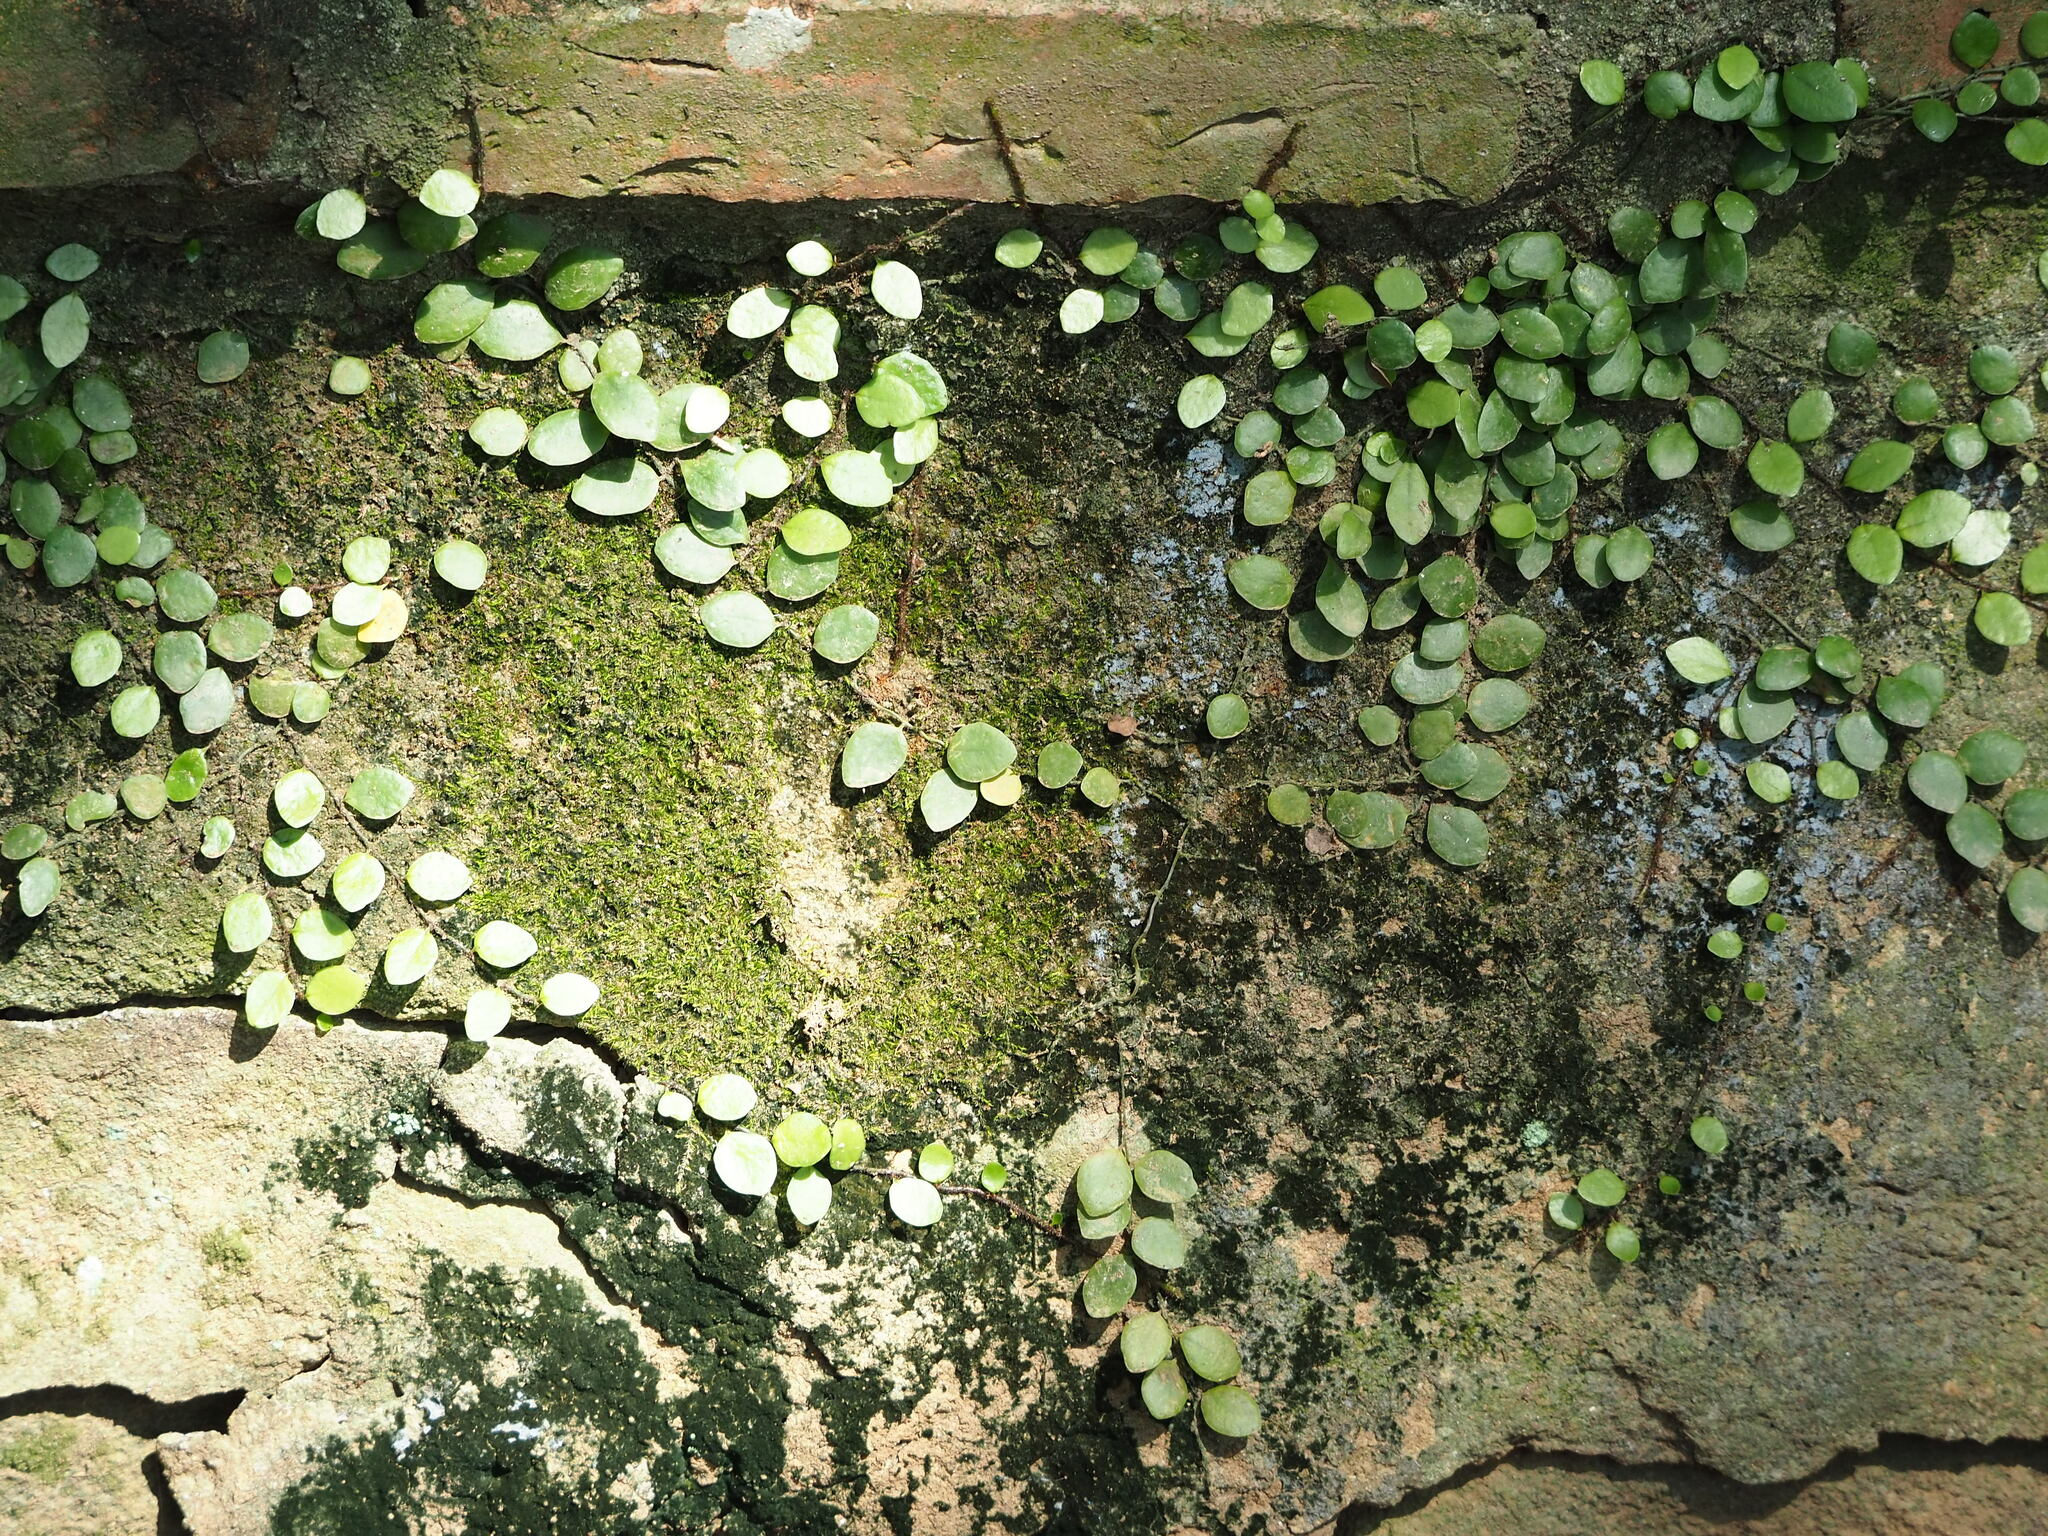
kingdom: Plantae
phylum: Tracheophyta
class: Polypodiopsida
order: Polypodiales
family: Polypodiaceae
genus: Lepisorus
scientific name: Lepisorus microphyllus
